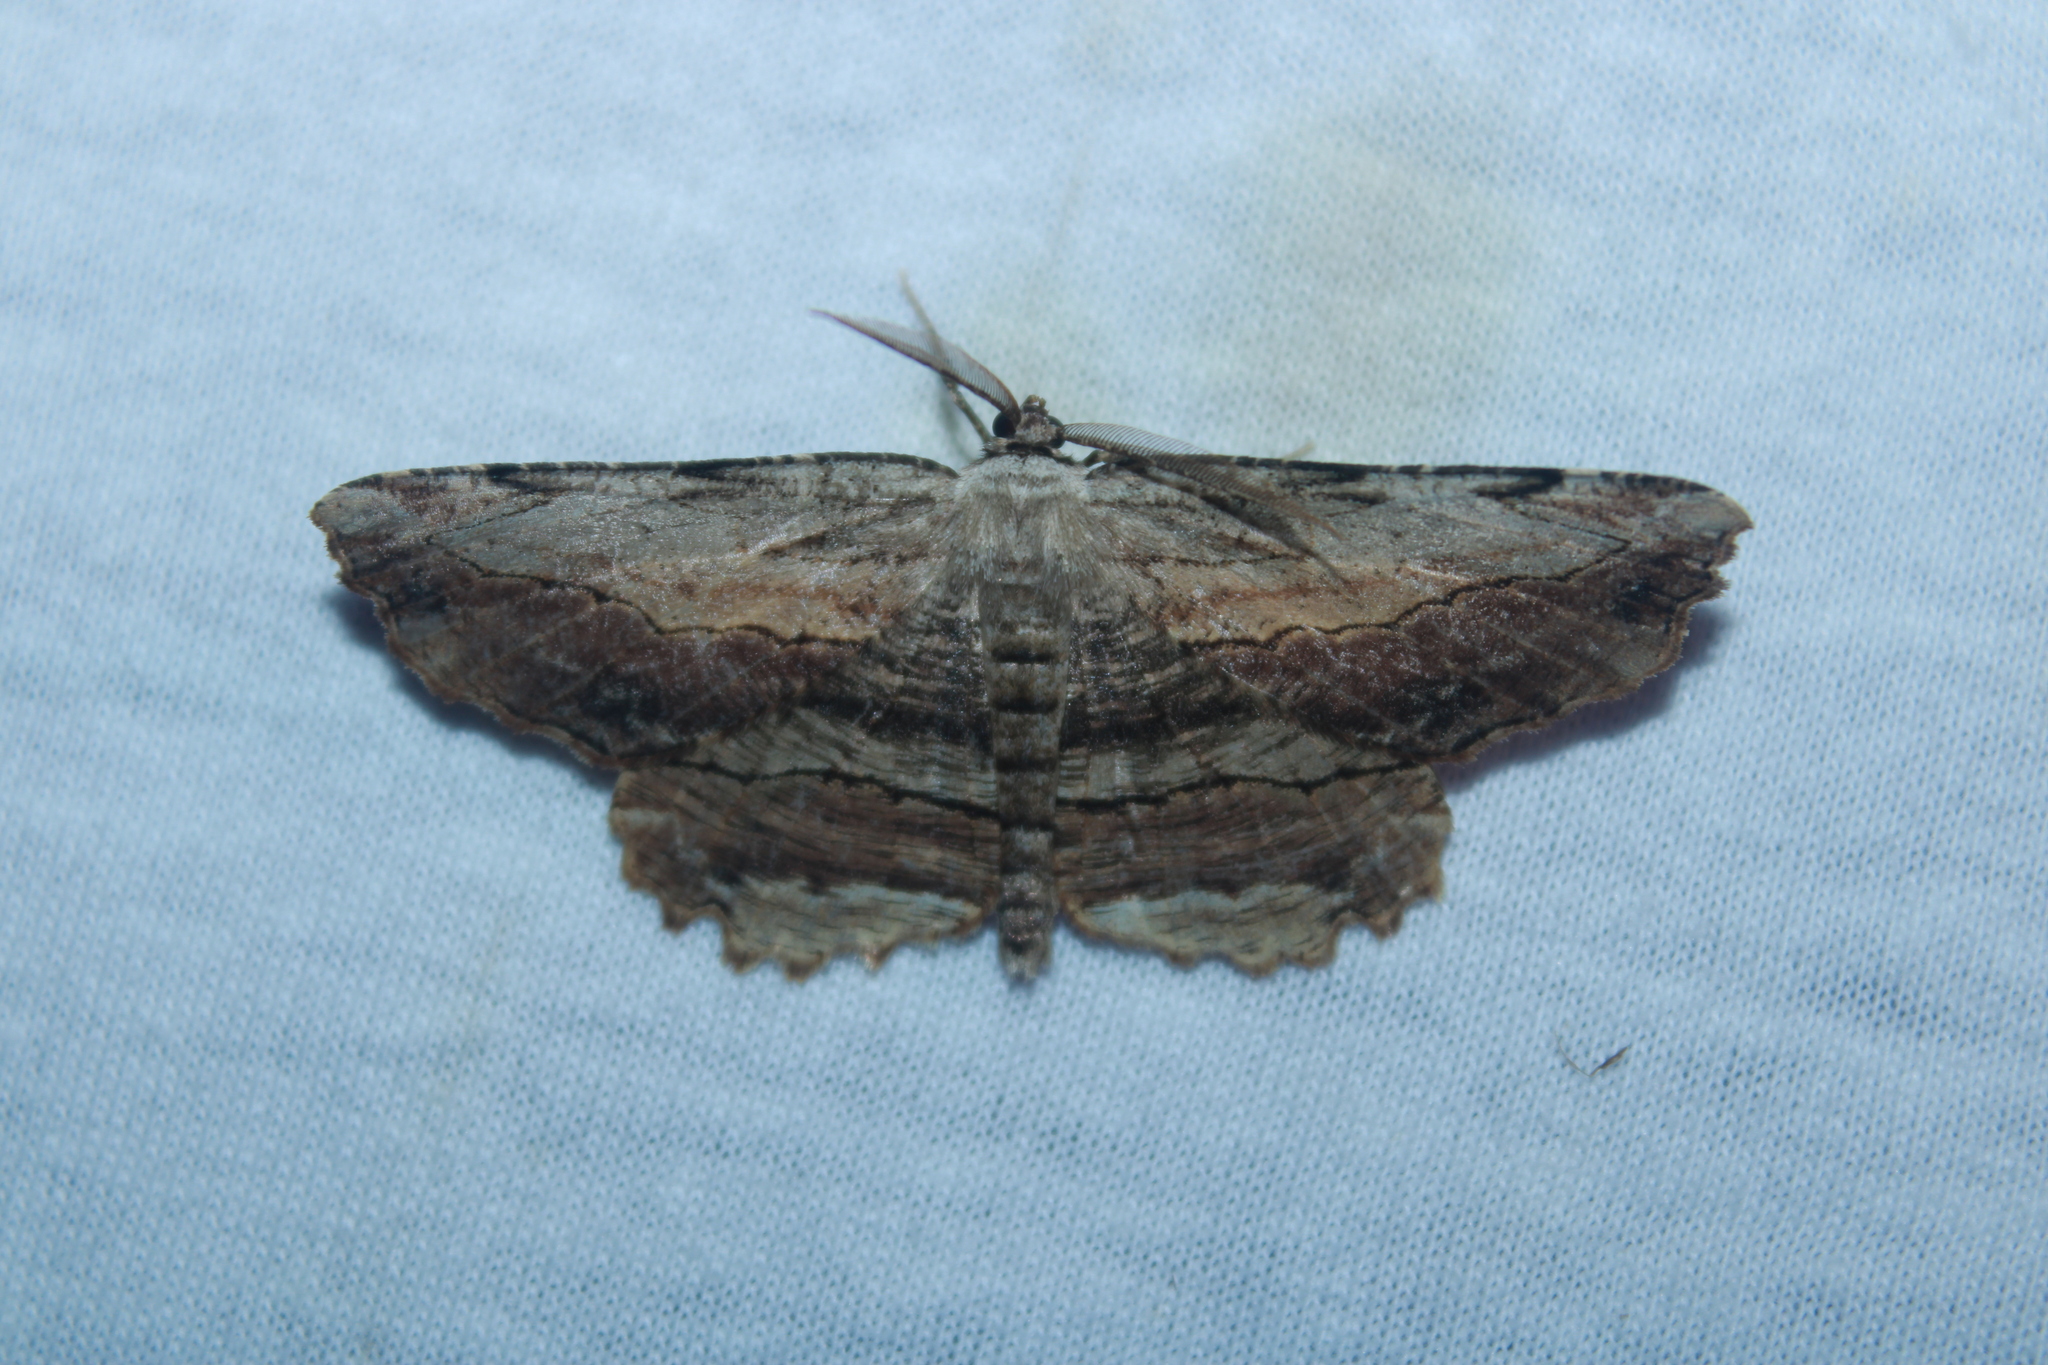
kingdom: Animalia
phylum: Arthropoda
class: Insecta
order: Lepidoptera
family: Geometridae
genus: Lytrosis
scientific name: Lytrosis unitaria
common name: Common lytrosis
